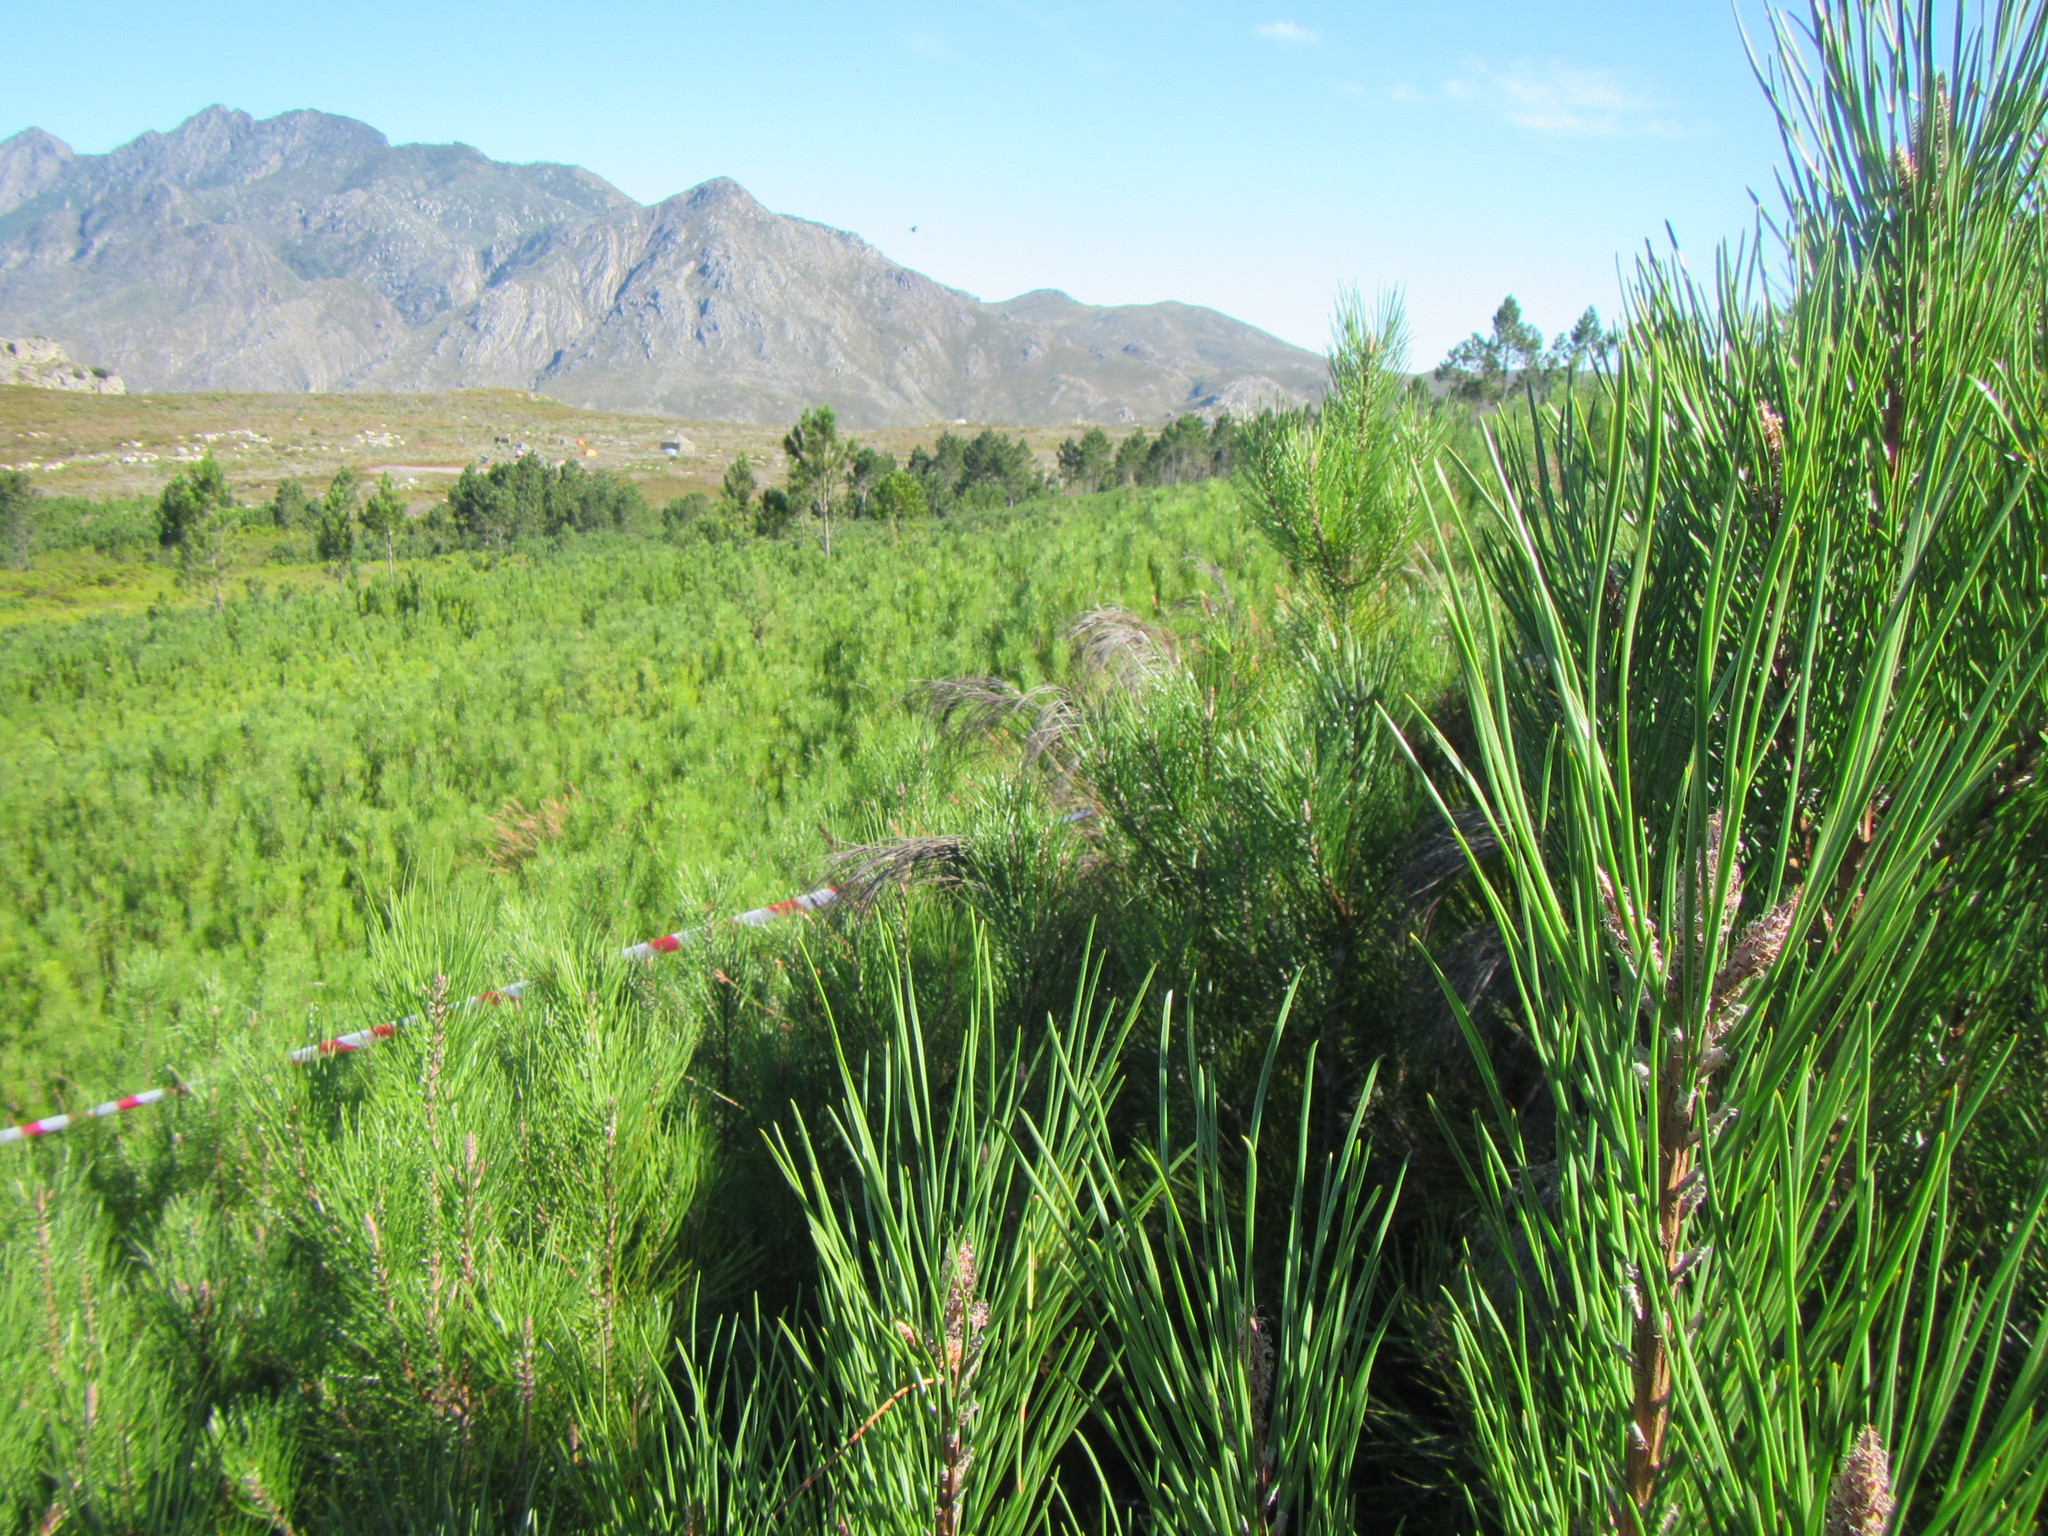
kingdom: Plantae
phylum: Tracheophyta
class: Pinopsida
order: Pinales
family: Pinaceae
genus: Pinus
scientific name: Pinus pinaster
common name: Maritime pine
